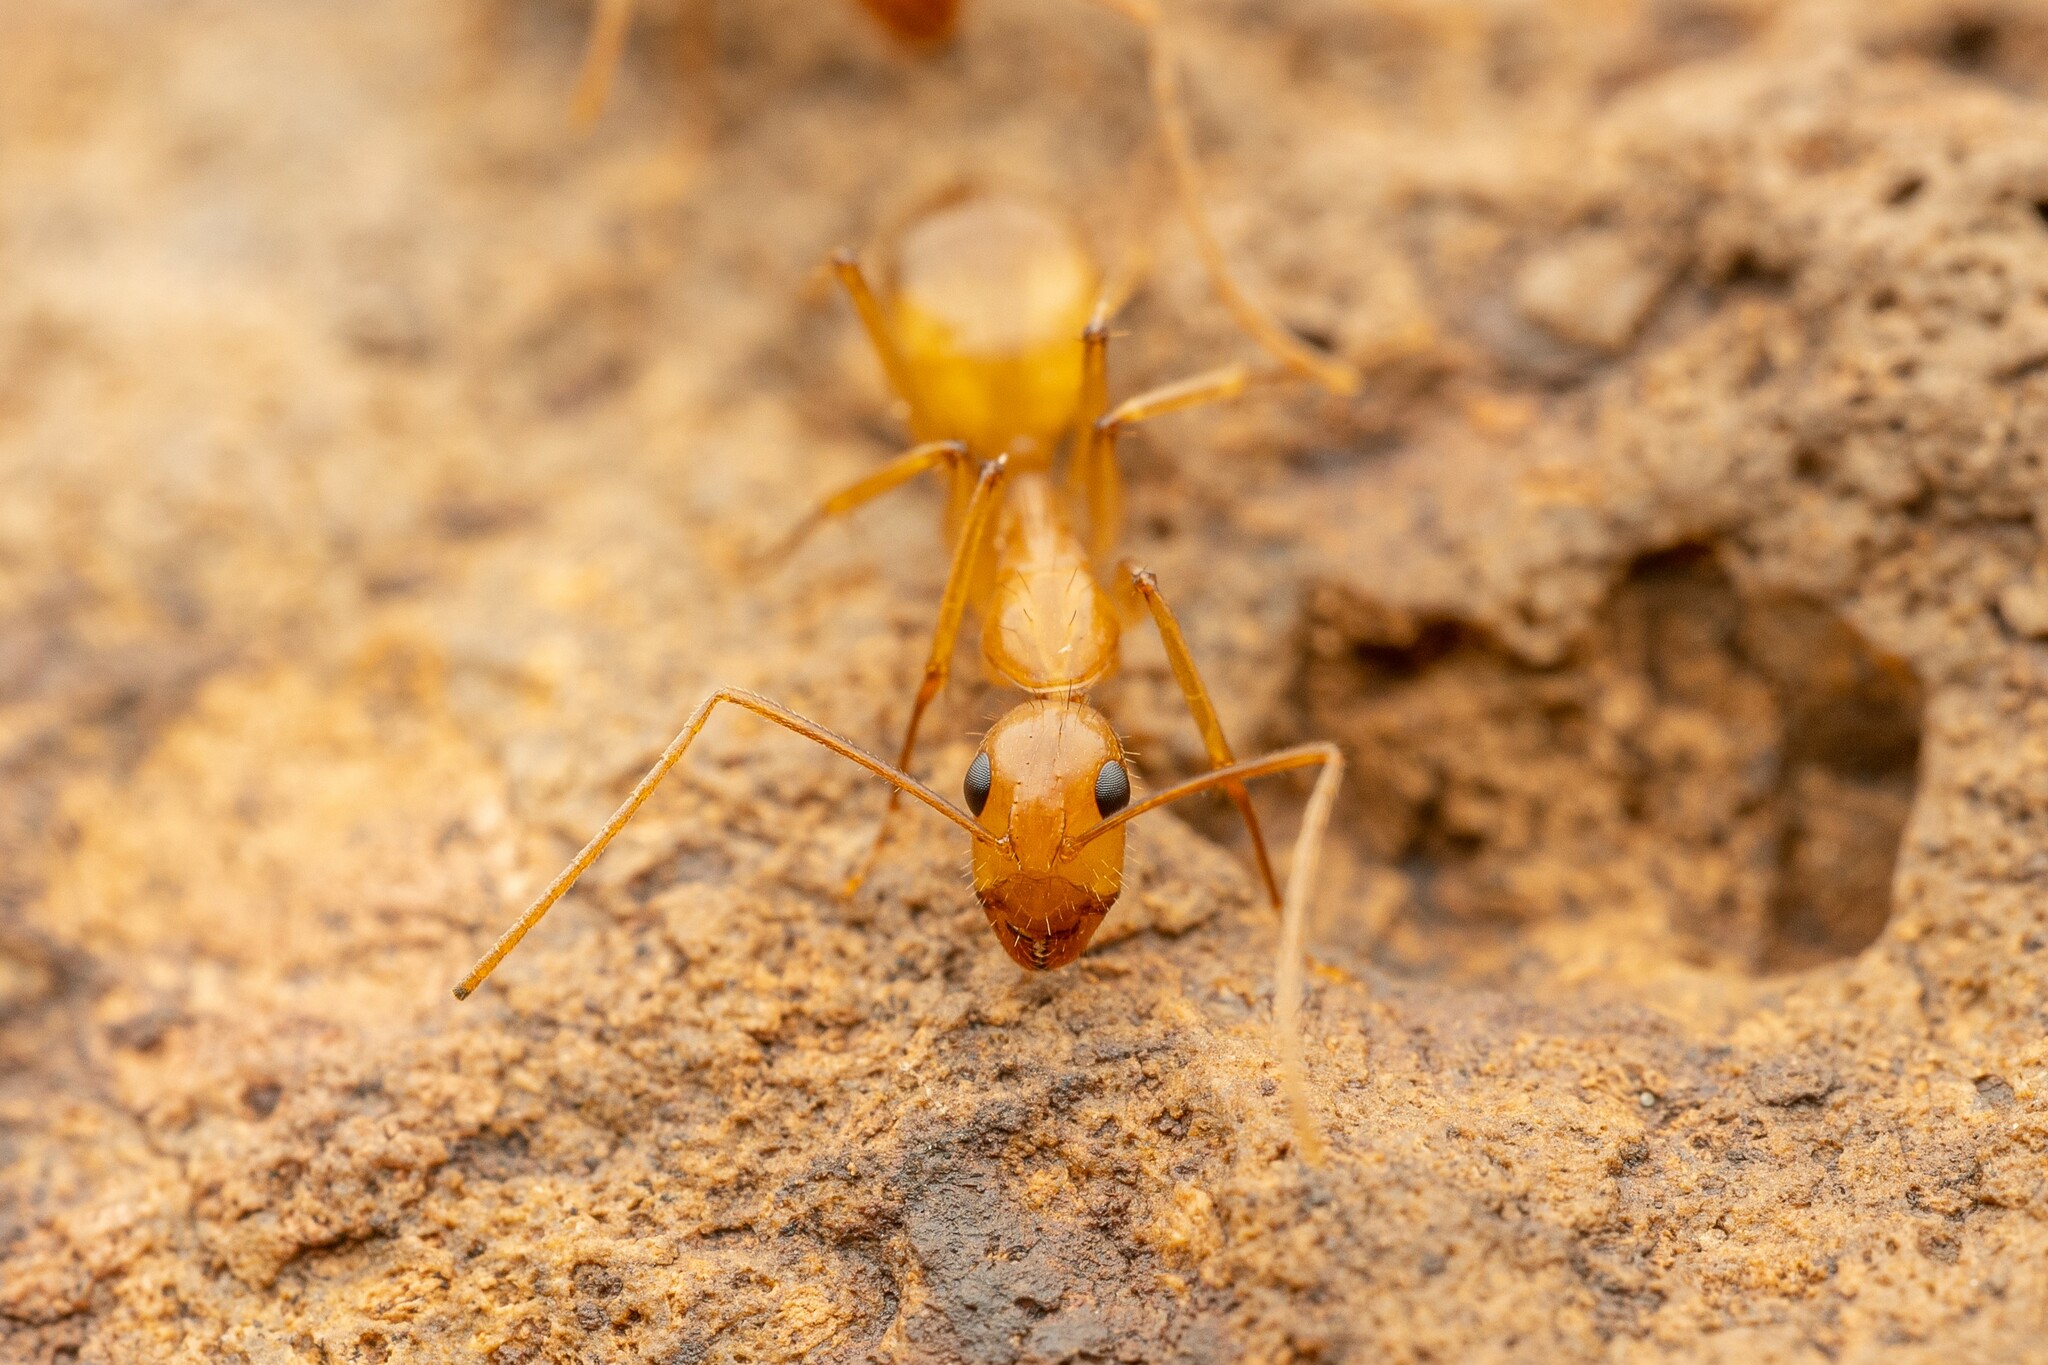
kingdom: Animalia
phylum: Arthropoda
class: Insecta
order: Hymenoptera
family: Formicidae
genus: Camponotus
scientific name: Camponotus pudorosus
